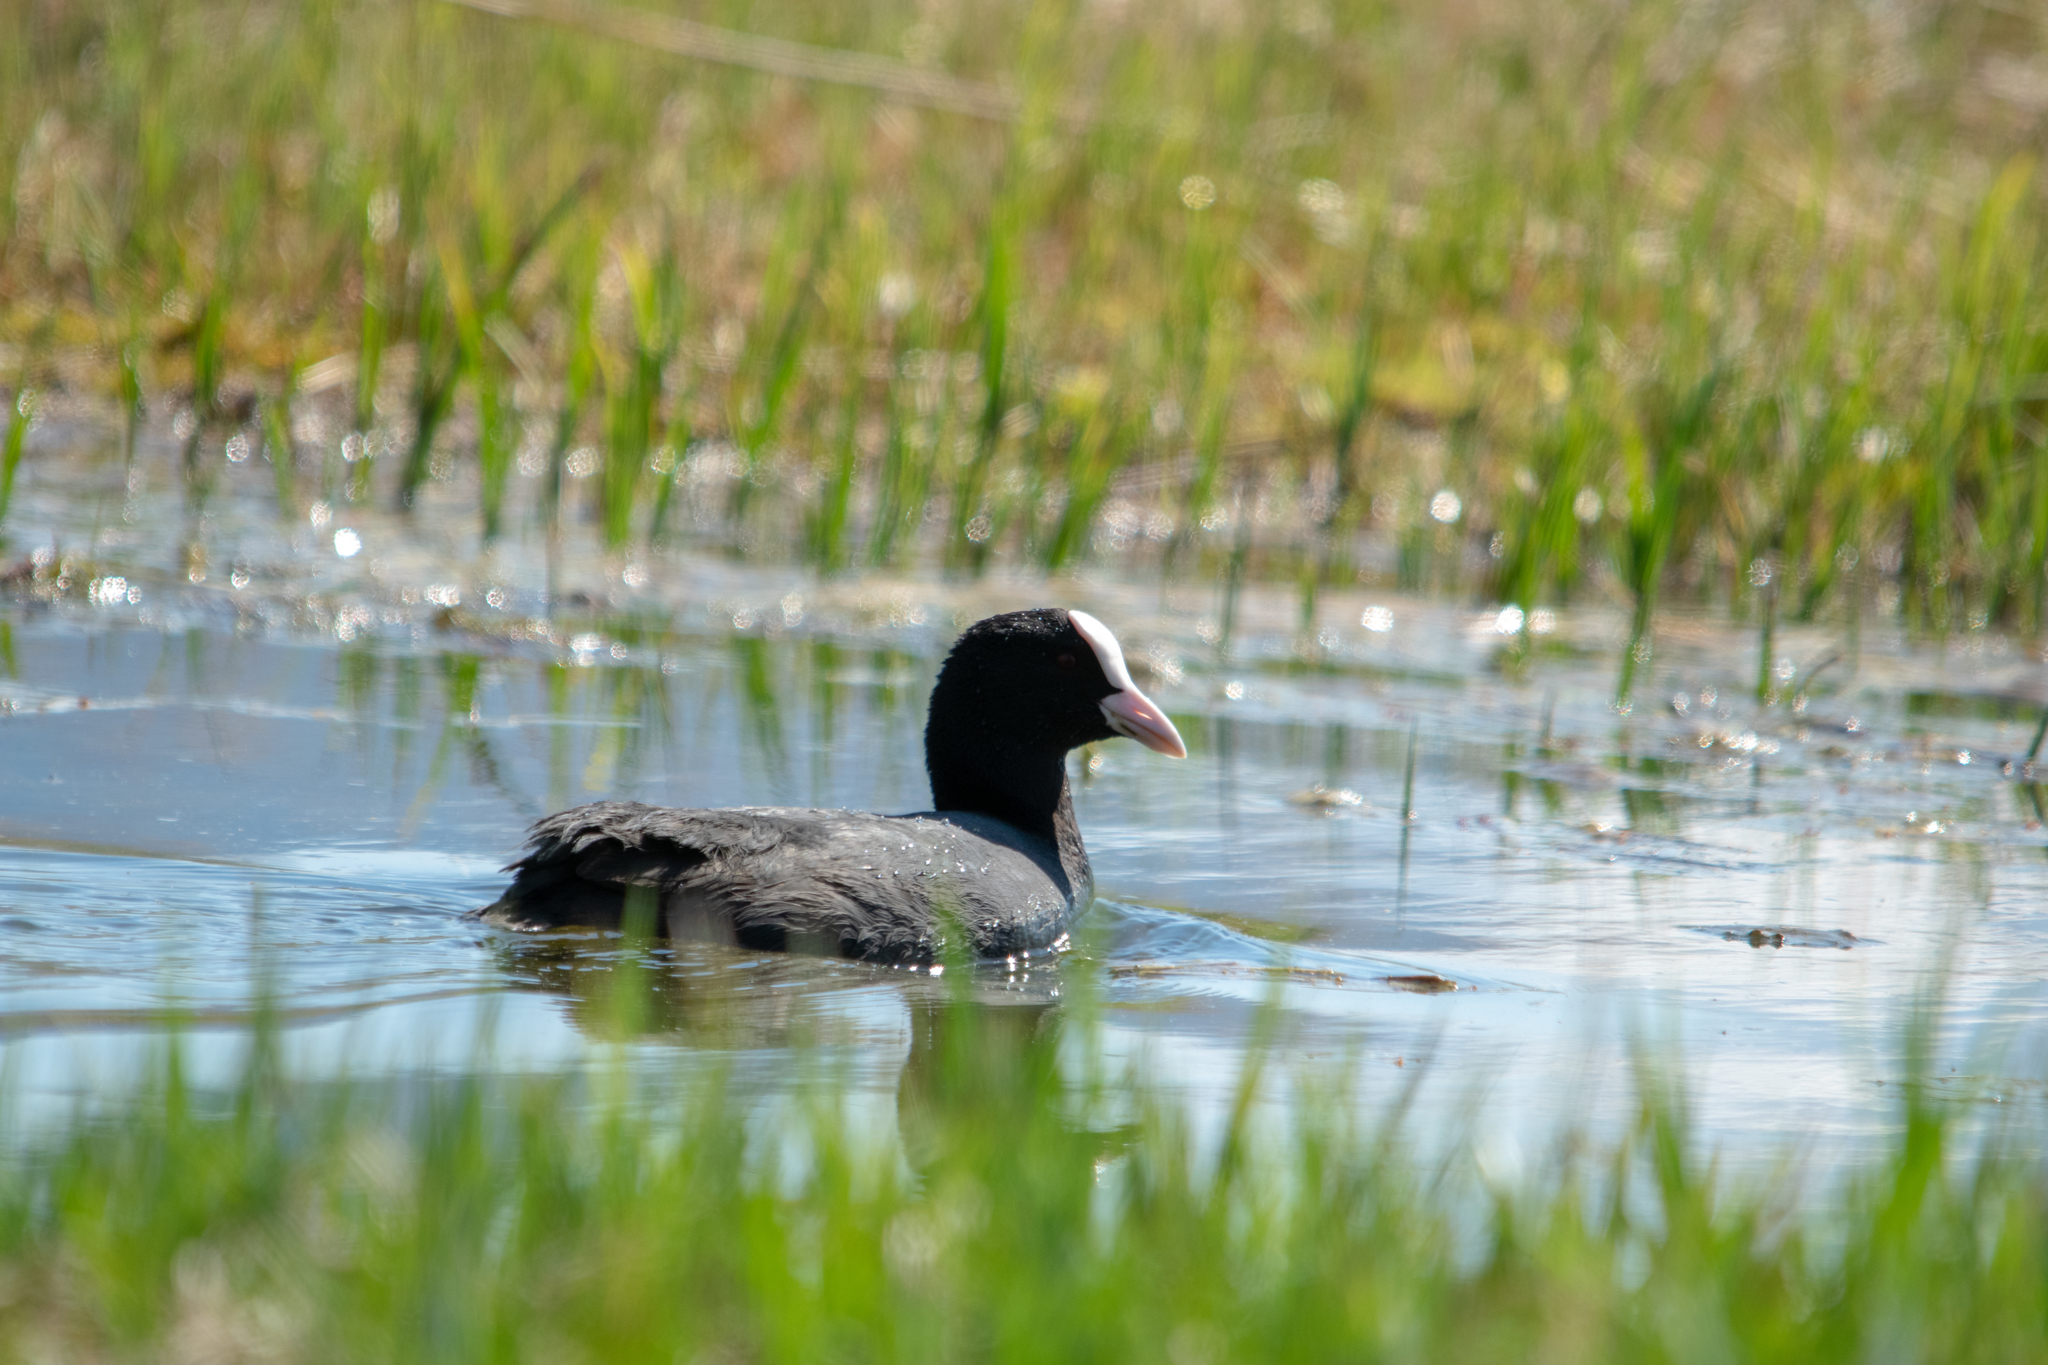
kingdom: Animalia
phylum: Chordata
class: Aves
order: Gruiformes
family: Rallidae
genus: Fulica
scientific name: Fulica atra
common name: Eurasian coot
